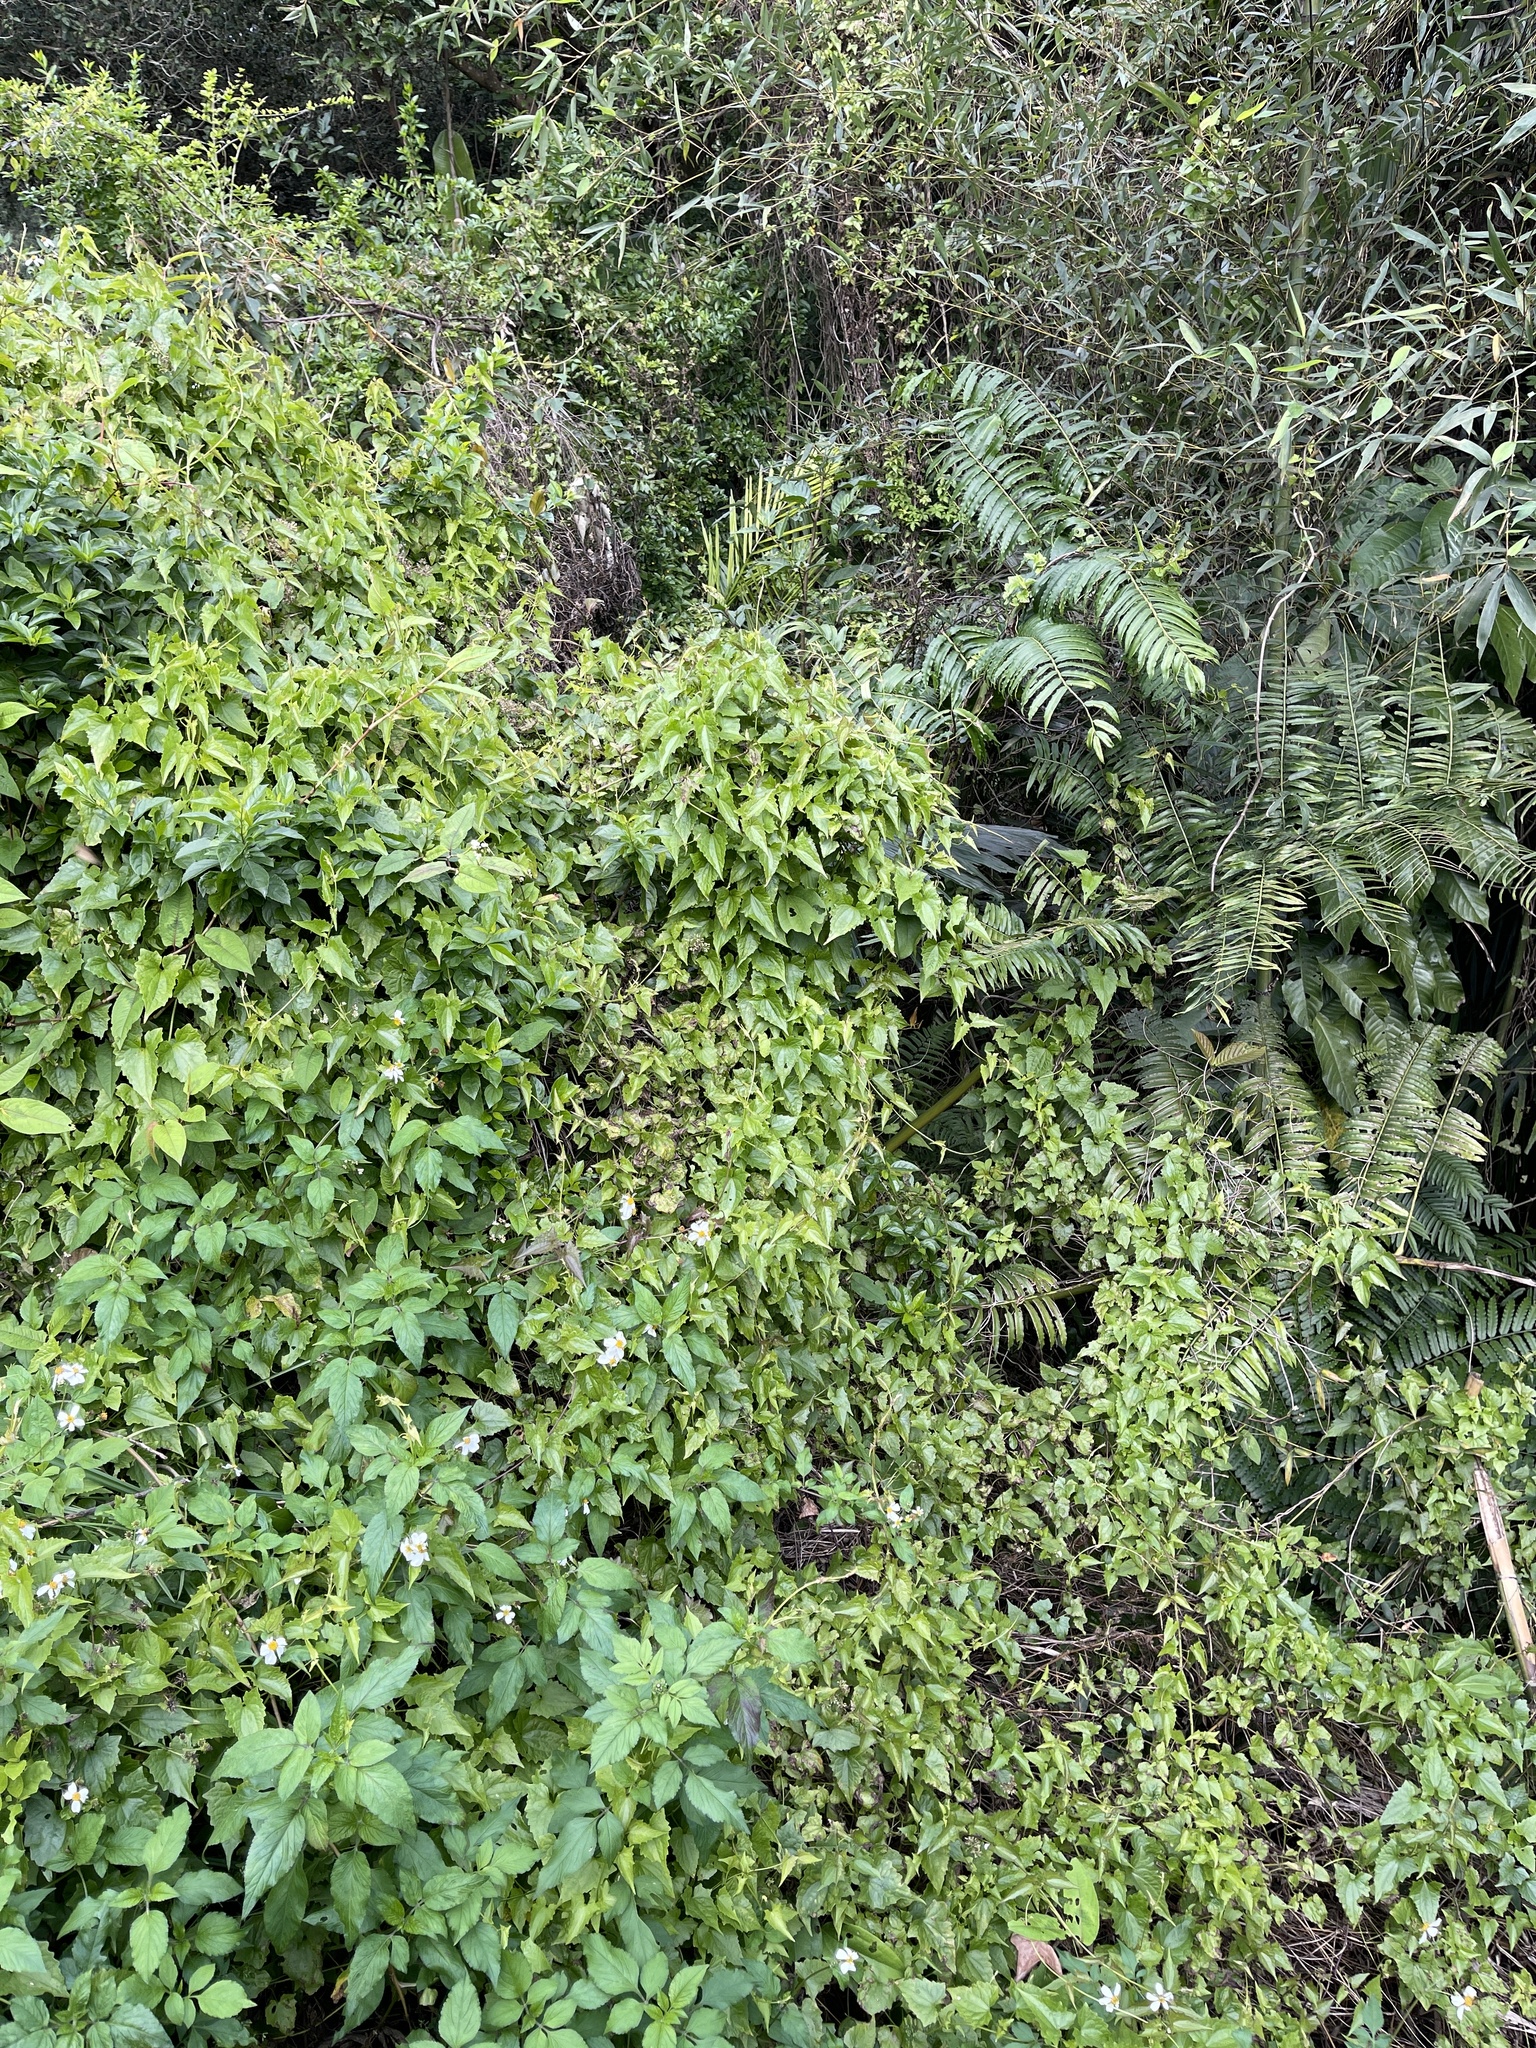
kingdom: Plantae
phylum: Tracheophyta
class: Magnoliopsida
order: Asterales
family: Asteraceae
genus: Mikania
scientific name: Mikania micrantha
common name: Mile-a-minute
